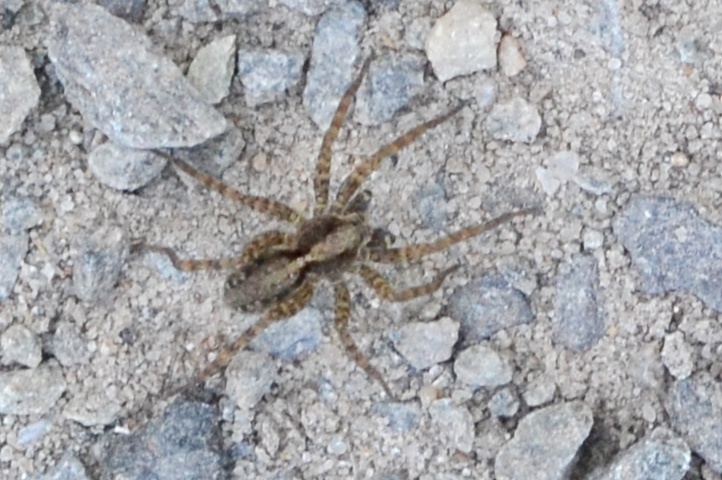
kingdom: Animalia
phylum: Arthropoda
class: Arachnida
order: Araneae
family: Lycosidae
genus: Pardosa
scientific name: Pardosa amentata
